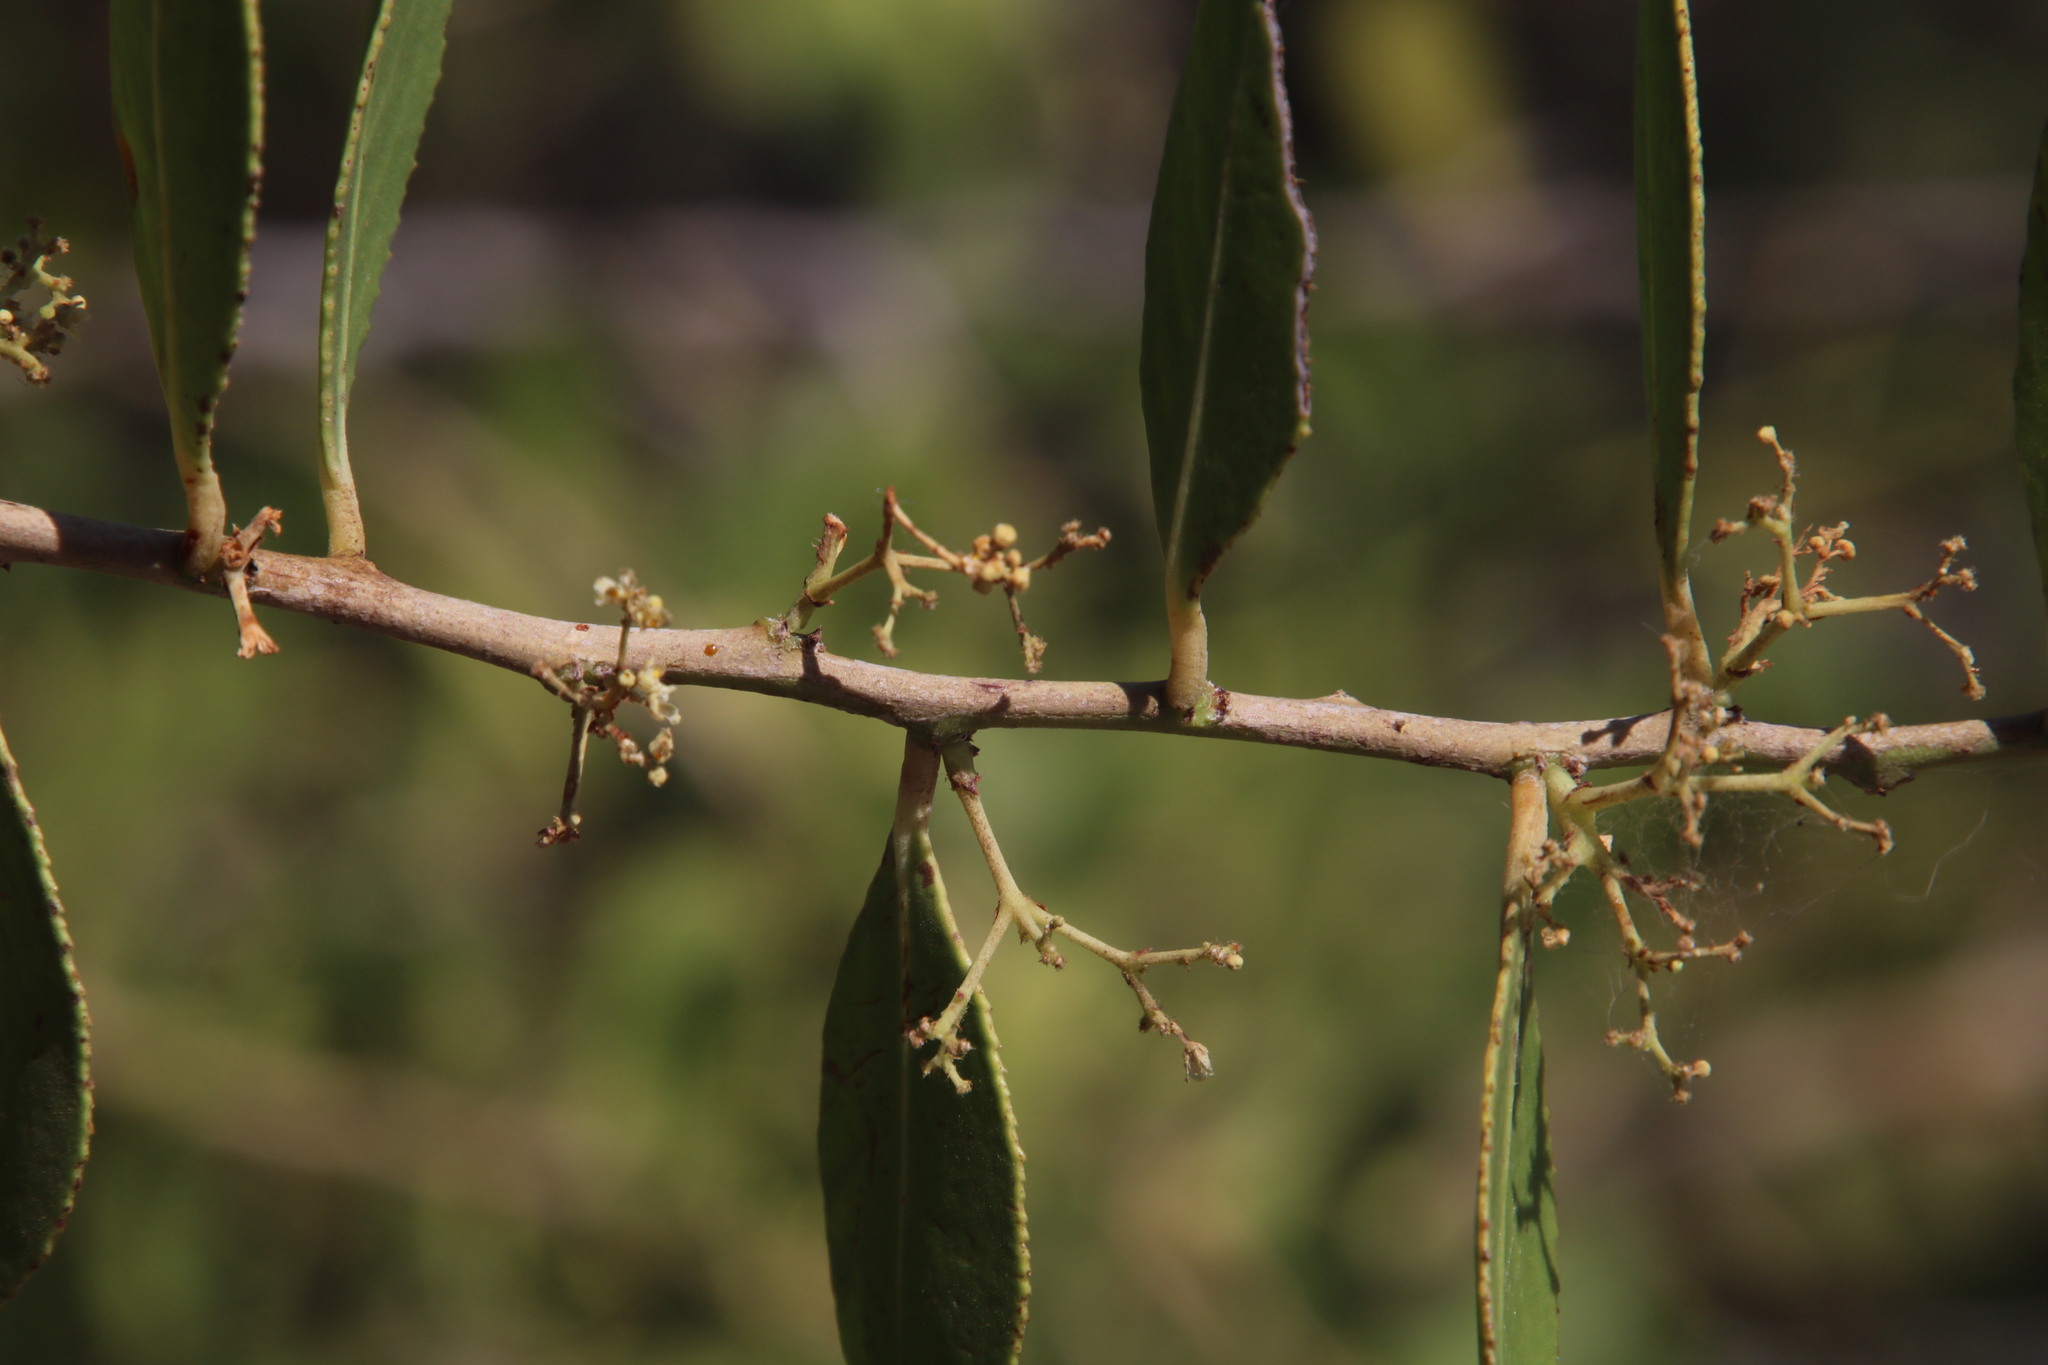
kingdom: Plantae
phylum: Tracheophyta
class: Magnoliopsida
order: Celastrales
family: Celastraceae
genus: Gymnosporia
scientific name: Gymnosporia senegalensis
